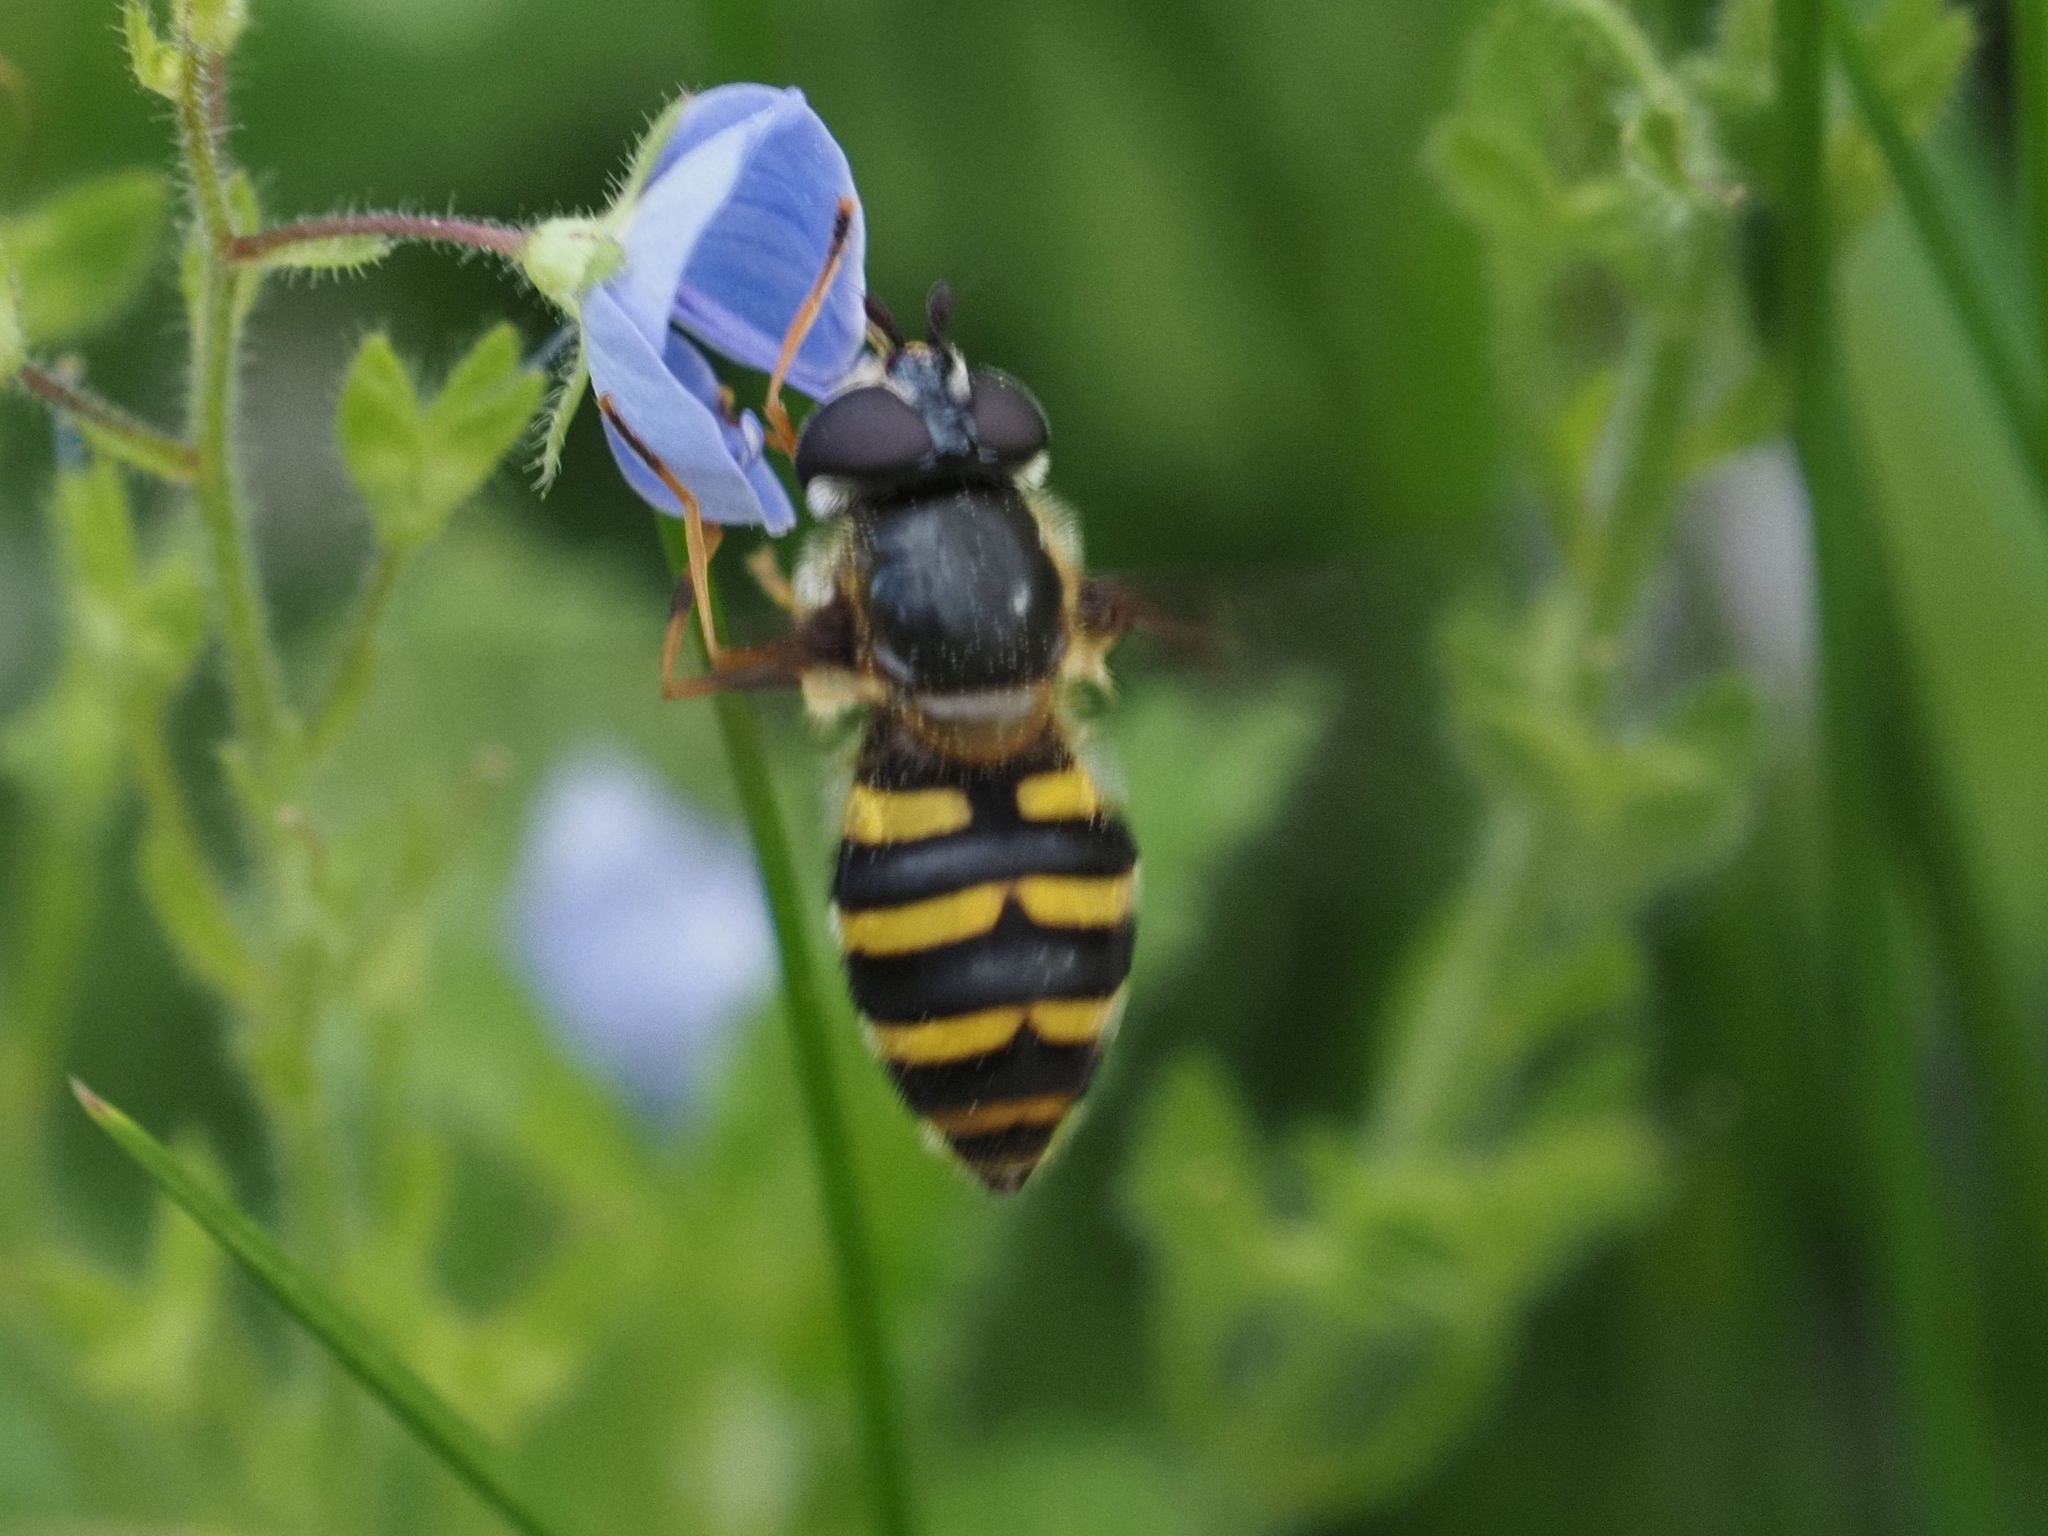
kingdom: Animalia
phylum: Arthropoda
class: Insecta
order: Diptera
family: Syrphidae
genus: Megasyrphus
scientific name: Megasyrphus erratica
